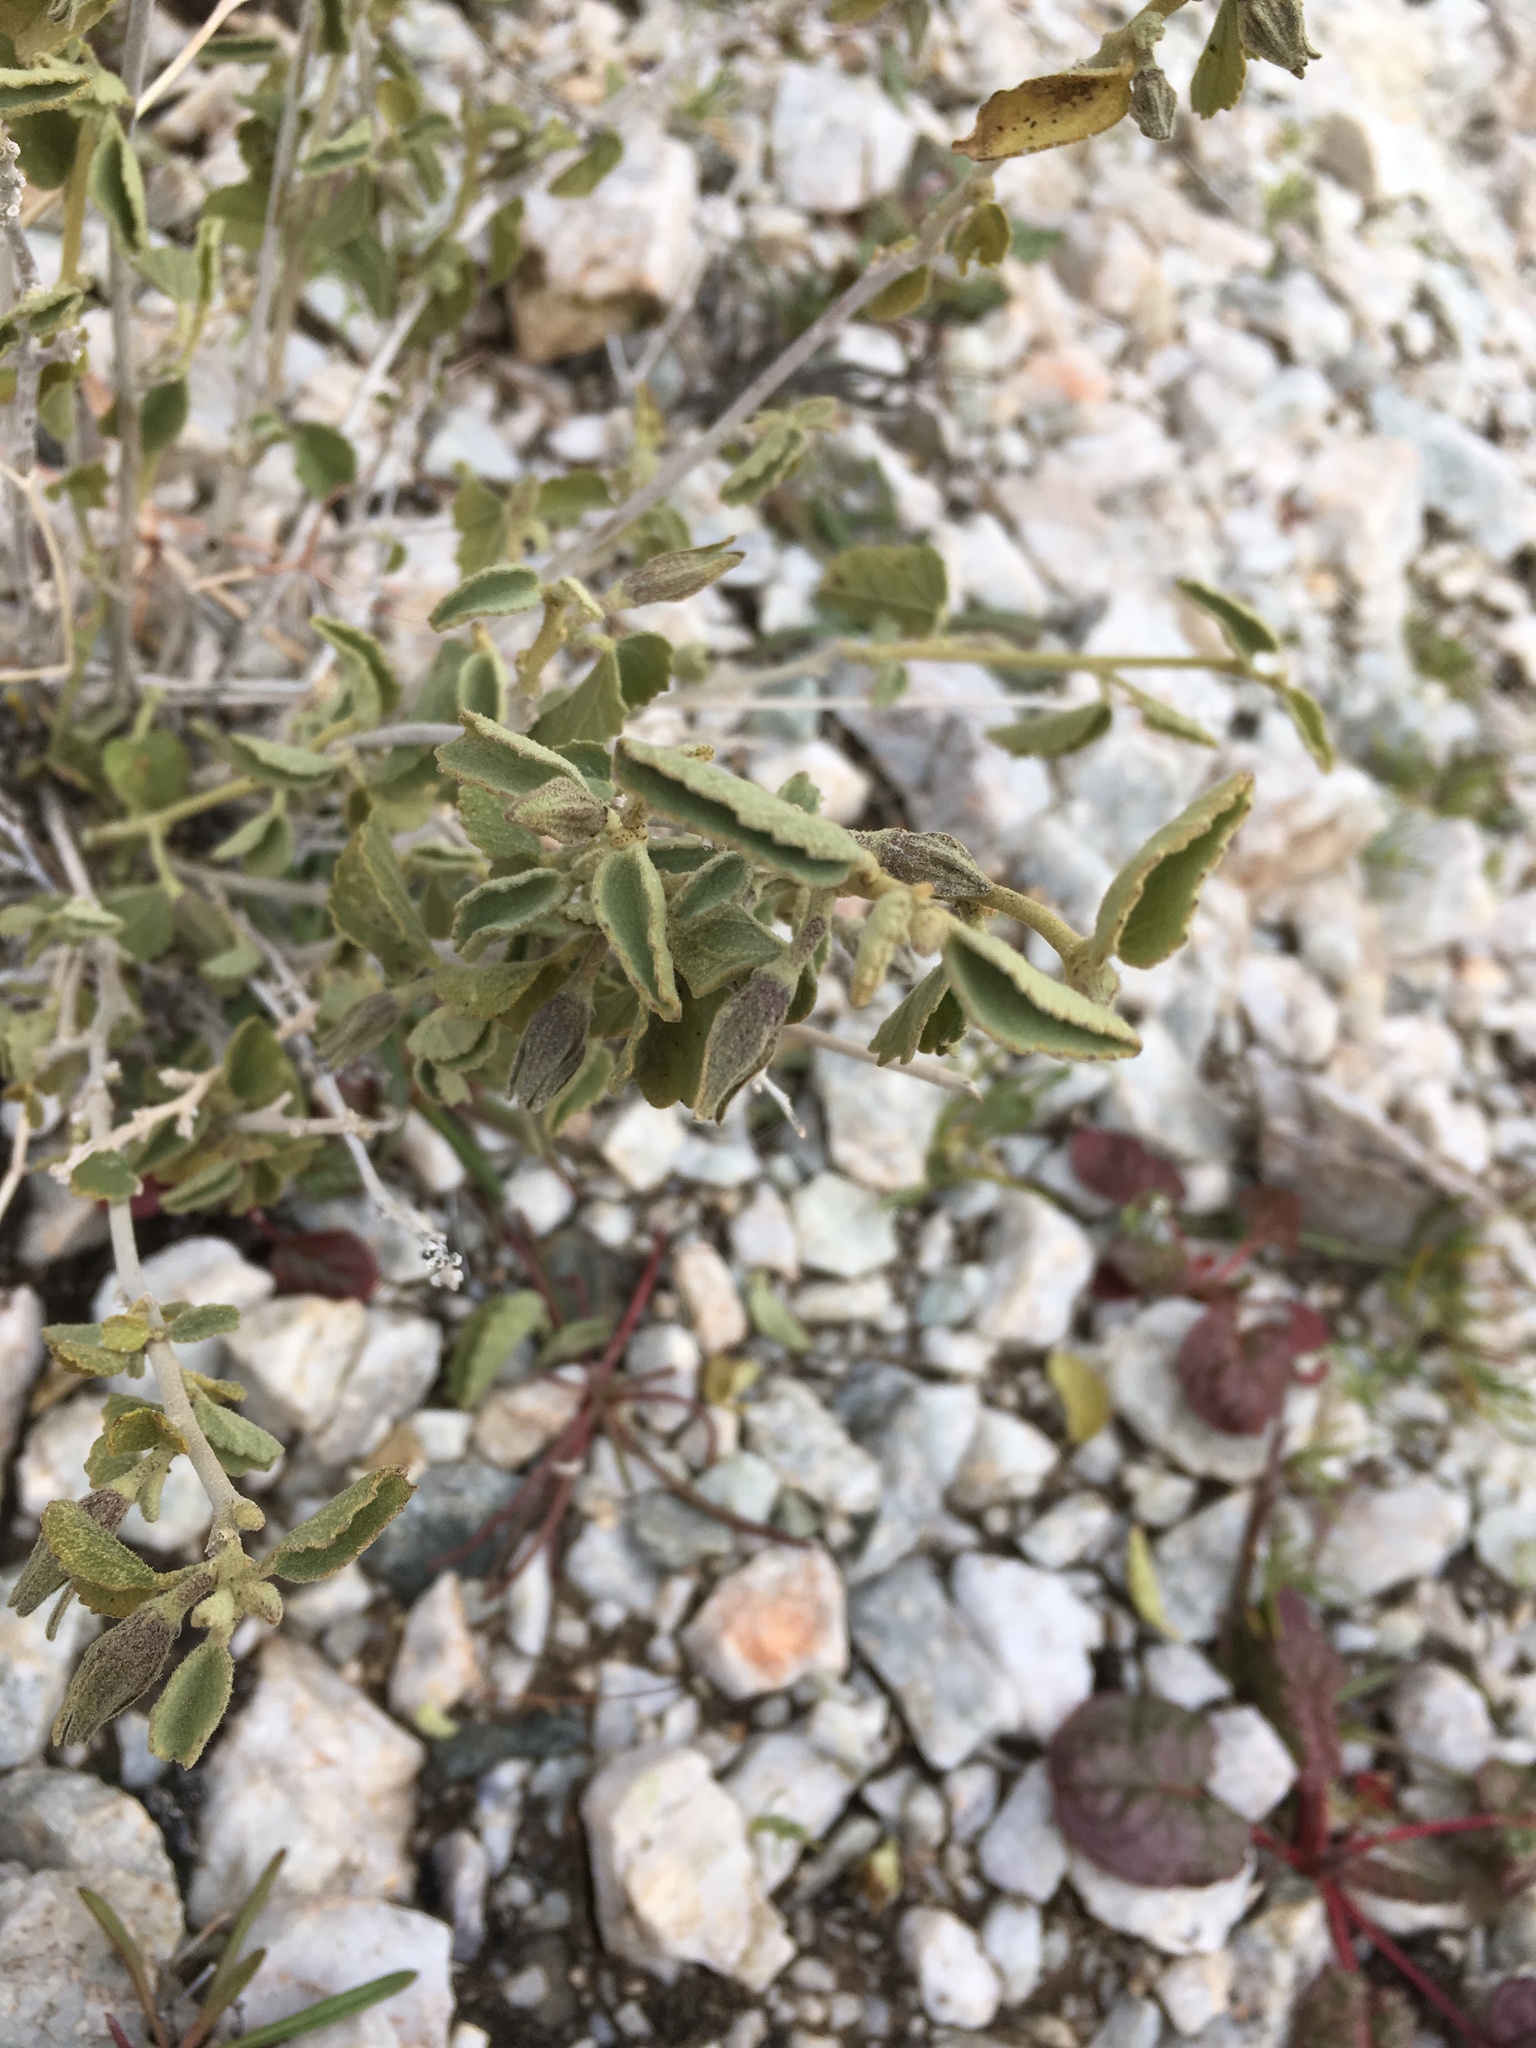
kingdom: Plantae
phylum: Tracheophyta
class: Magnoliopsida
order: Malvales
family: Malvaceae
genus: Hibiscus
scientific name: Hibiscus denudatus
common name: Paleface
